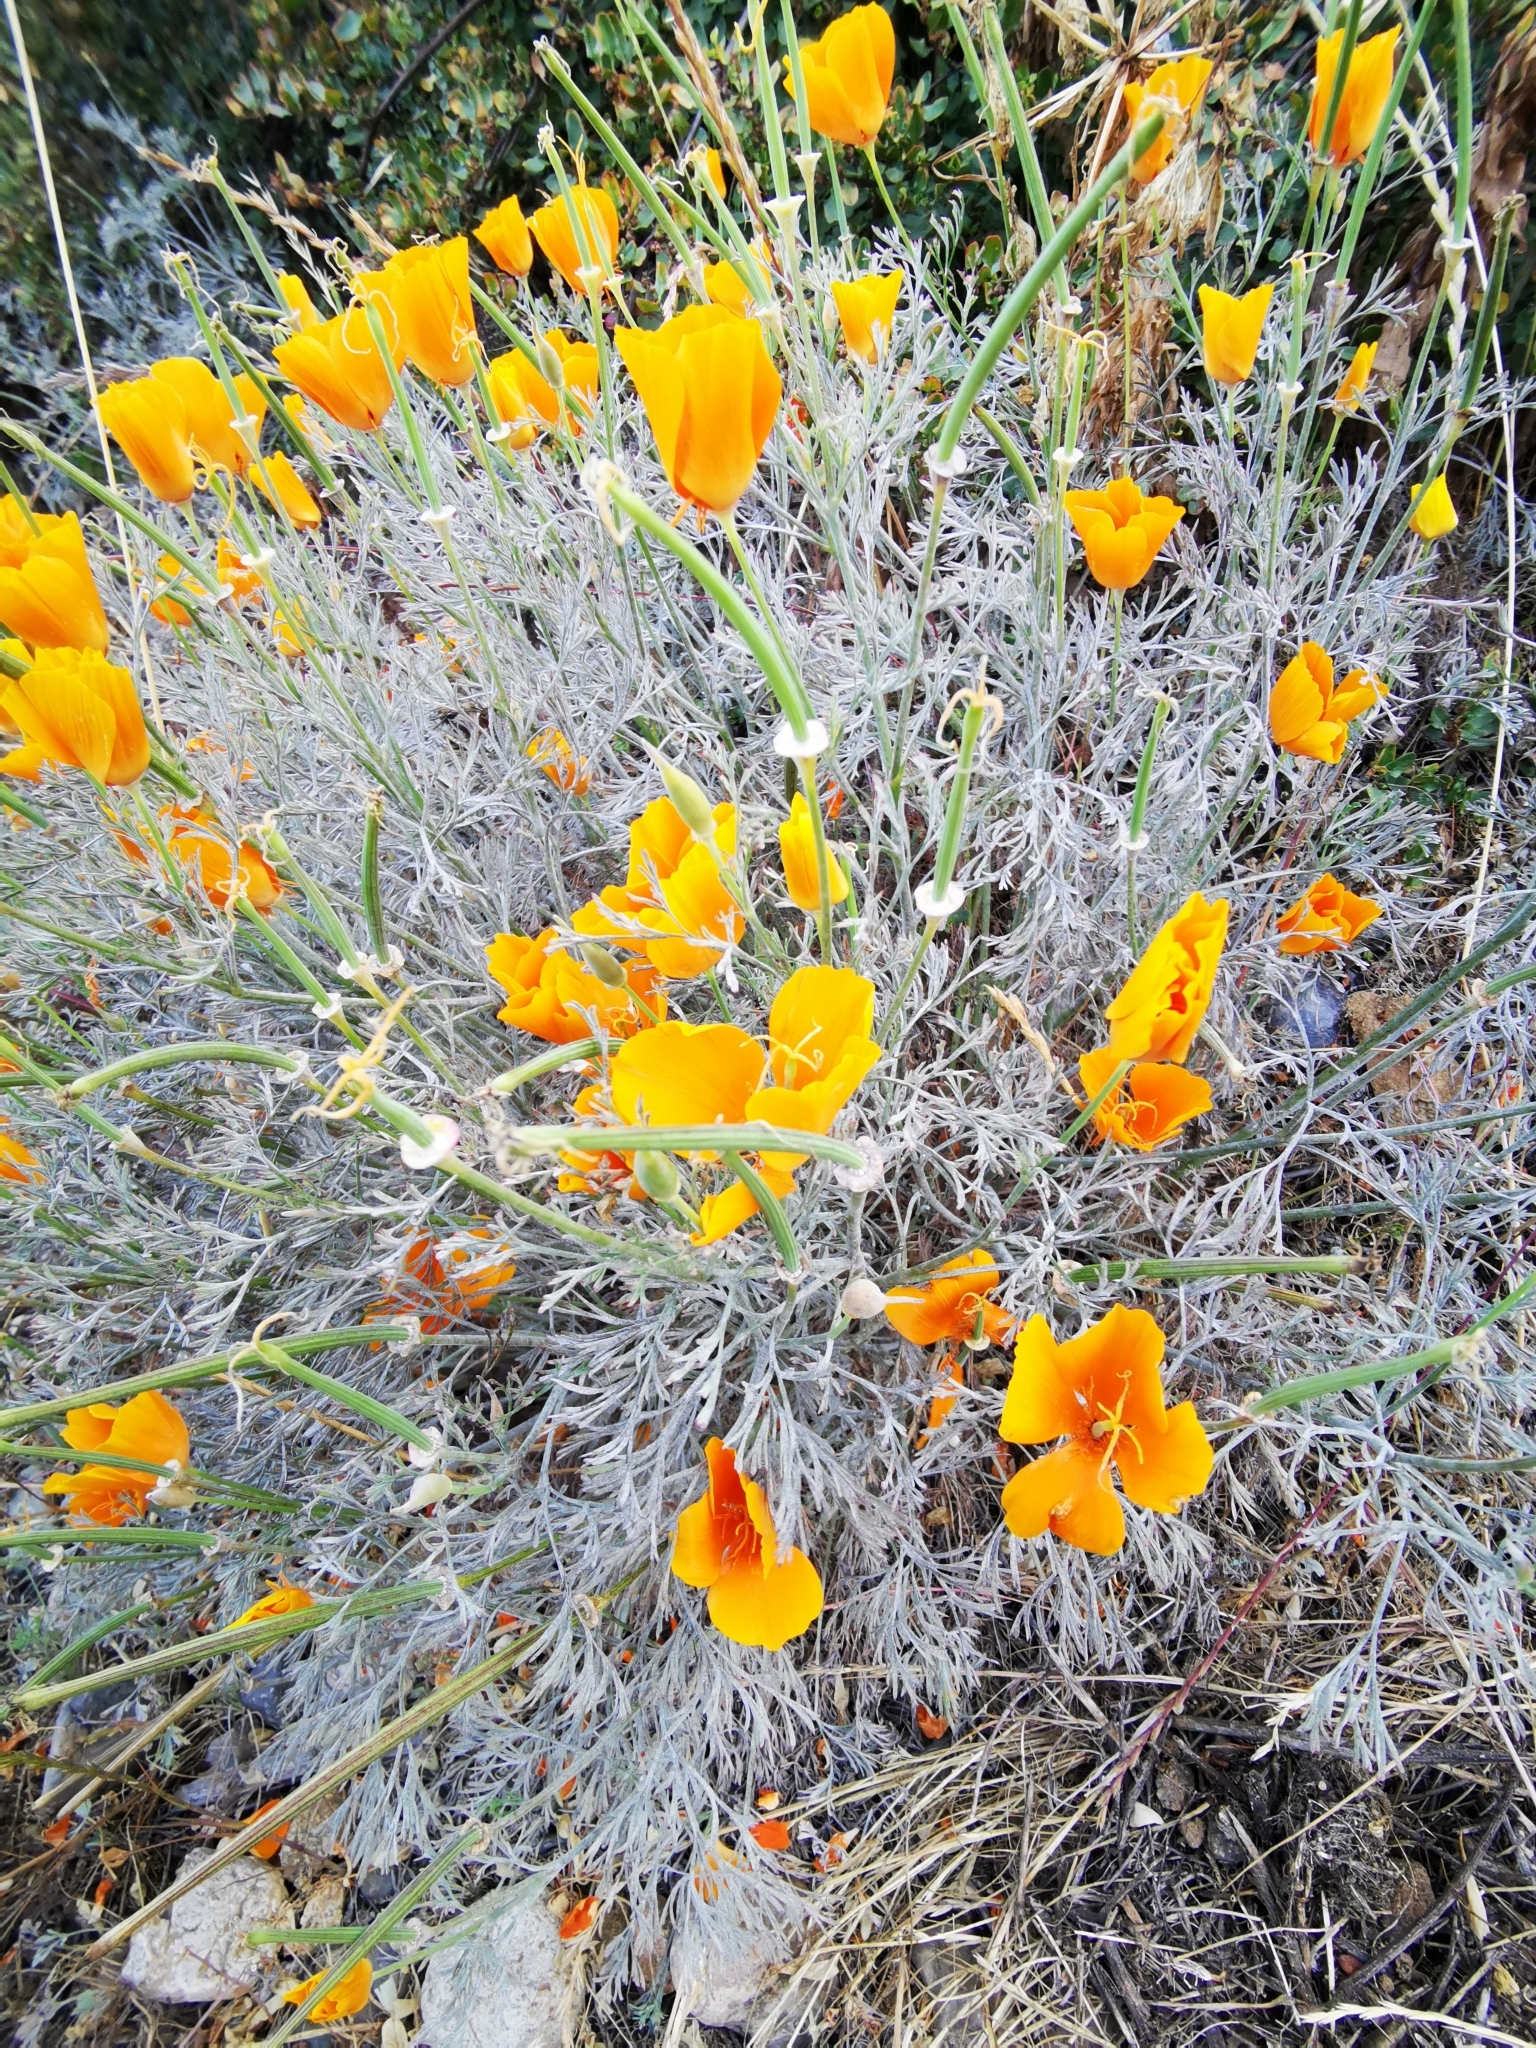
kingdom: Plantae
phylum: Tracheophyta
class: Magnoliopsida
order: Ranunculales
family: Papaveraceae
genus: Eschscholzia
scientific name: Eschscholzia californica
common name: California poppy
